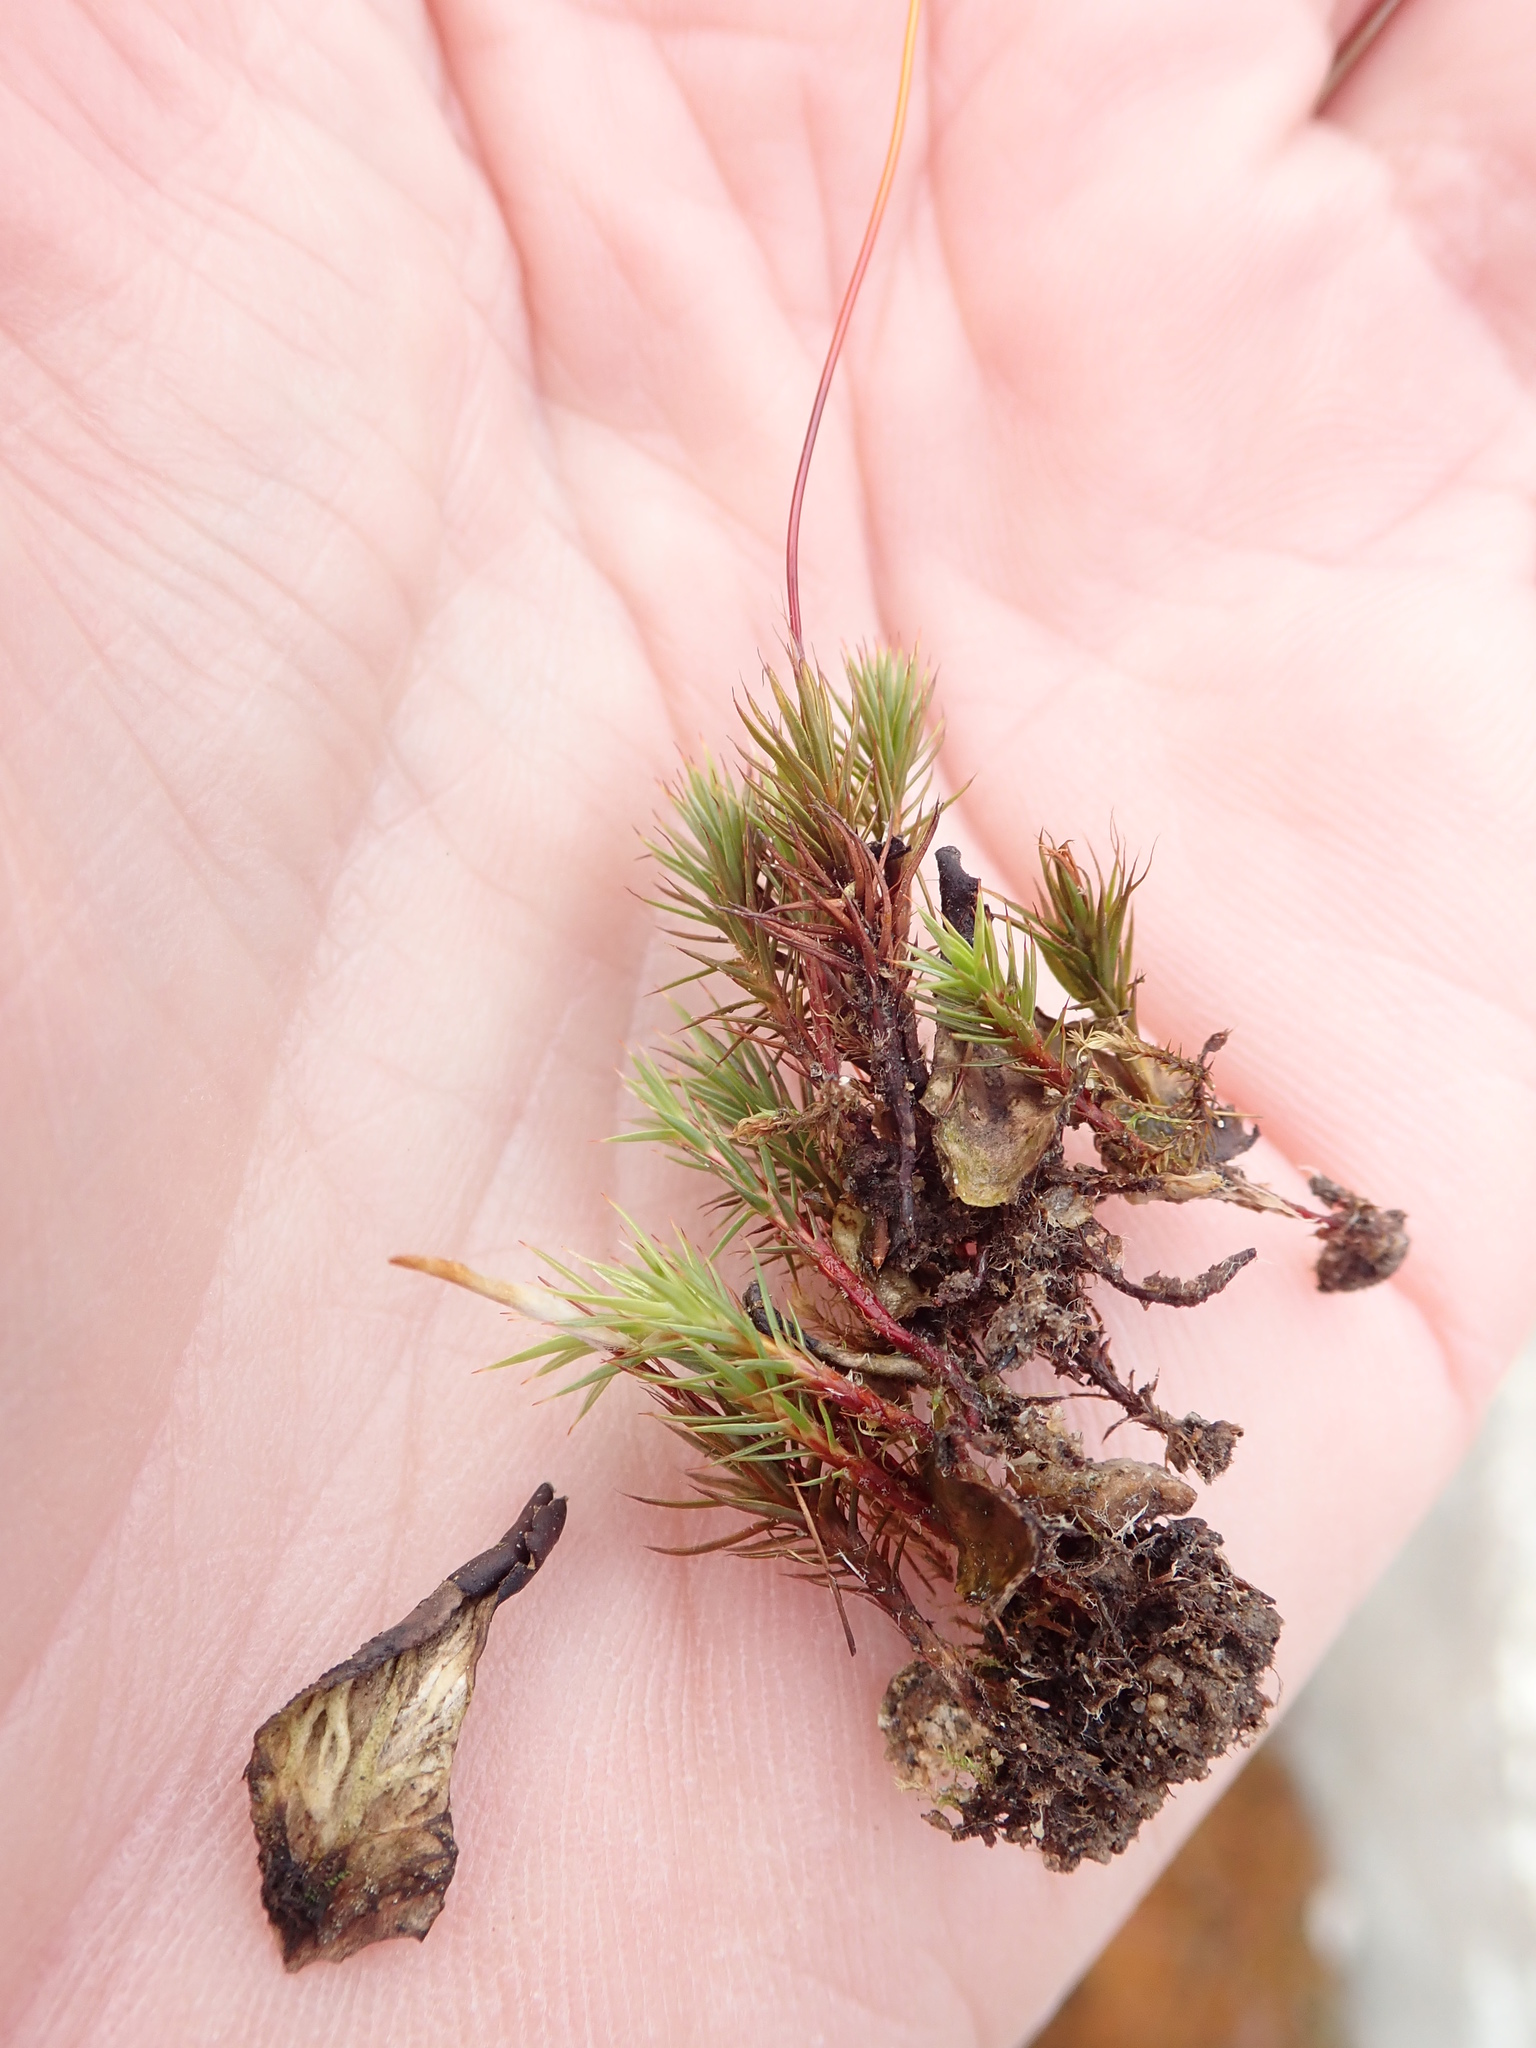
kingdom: Plantae
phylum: Bryophyta
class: Polytrichopsida
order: Polytrichales
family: Polytrichaceae
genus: Polytrichum
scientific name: Polytrichum juniperinum
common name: Juniper haircap moss
